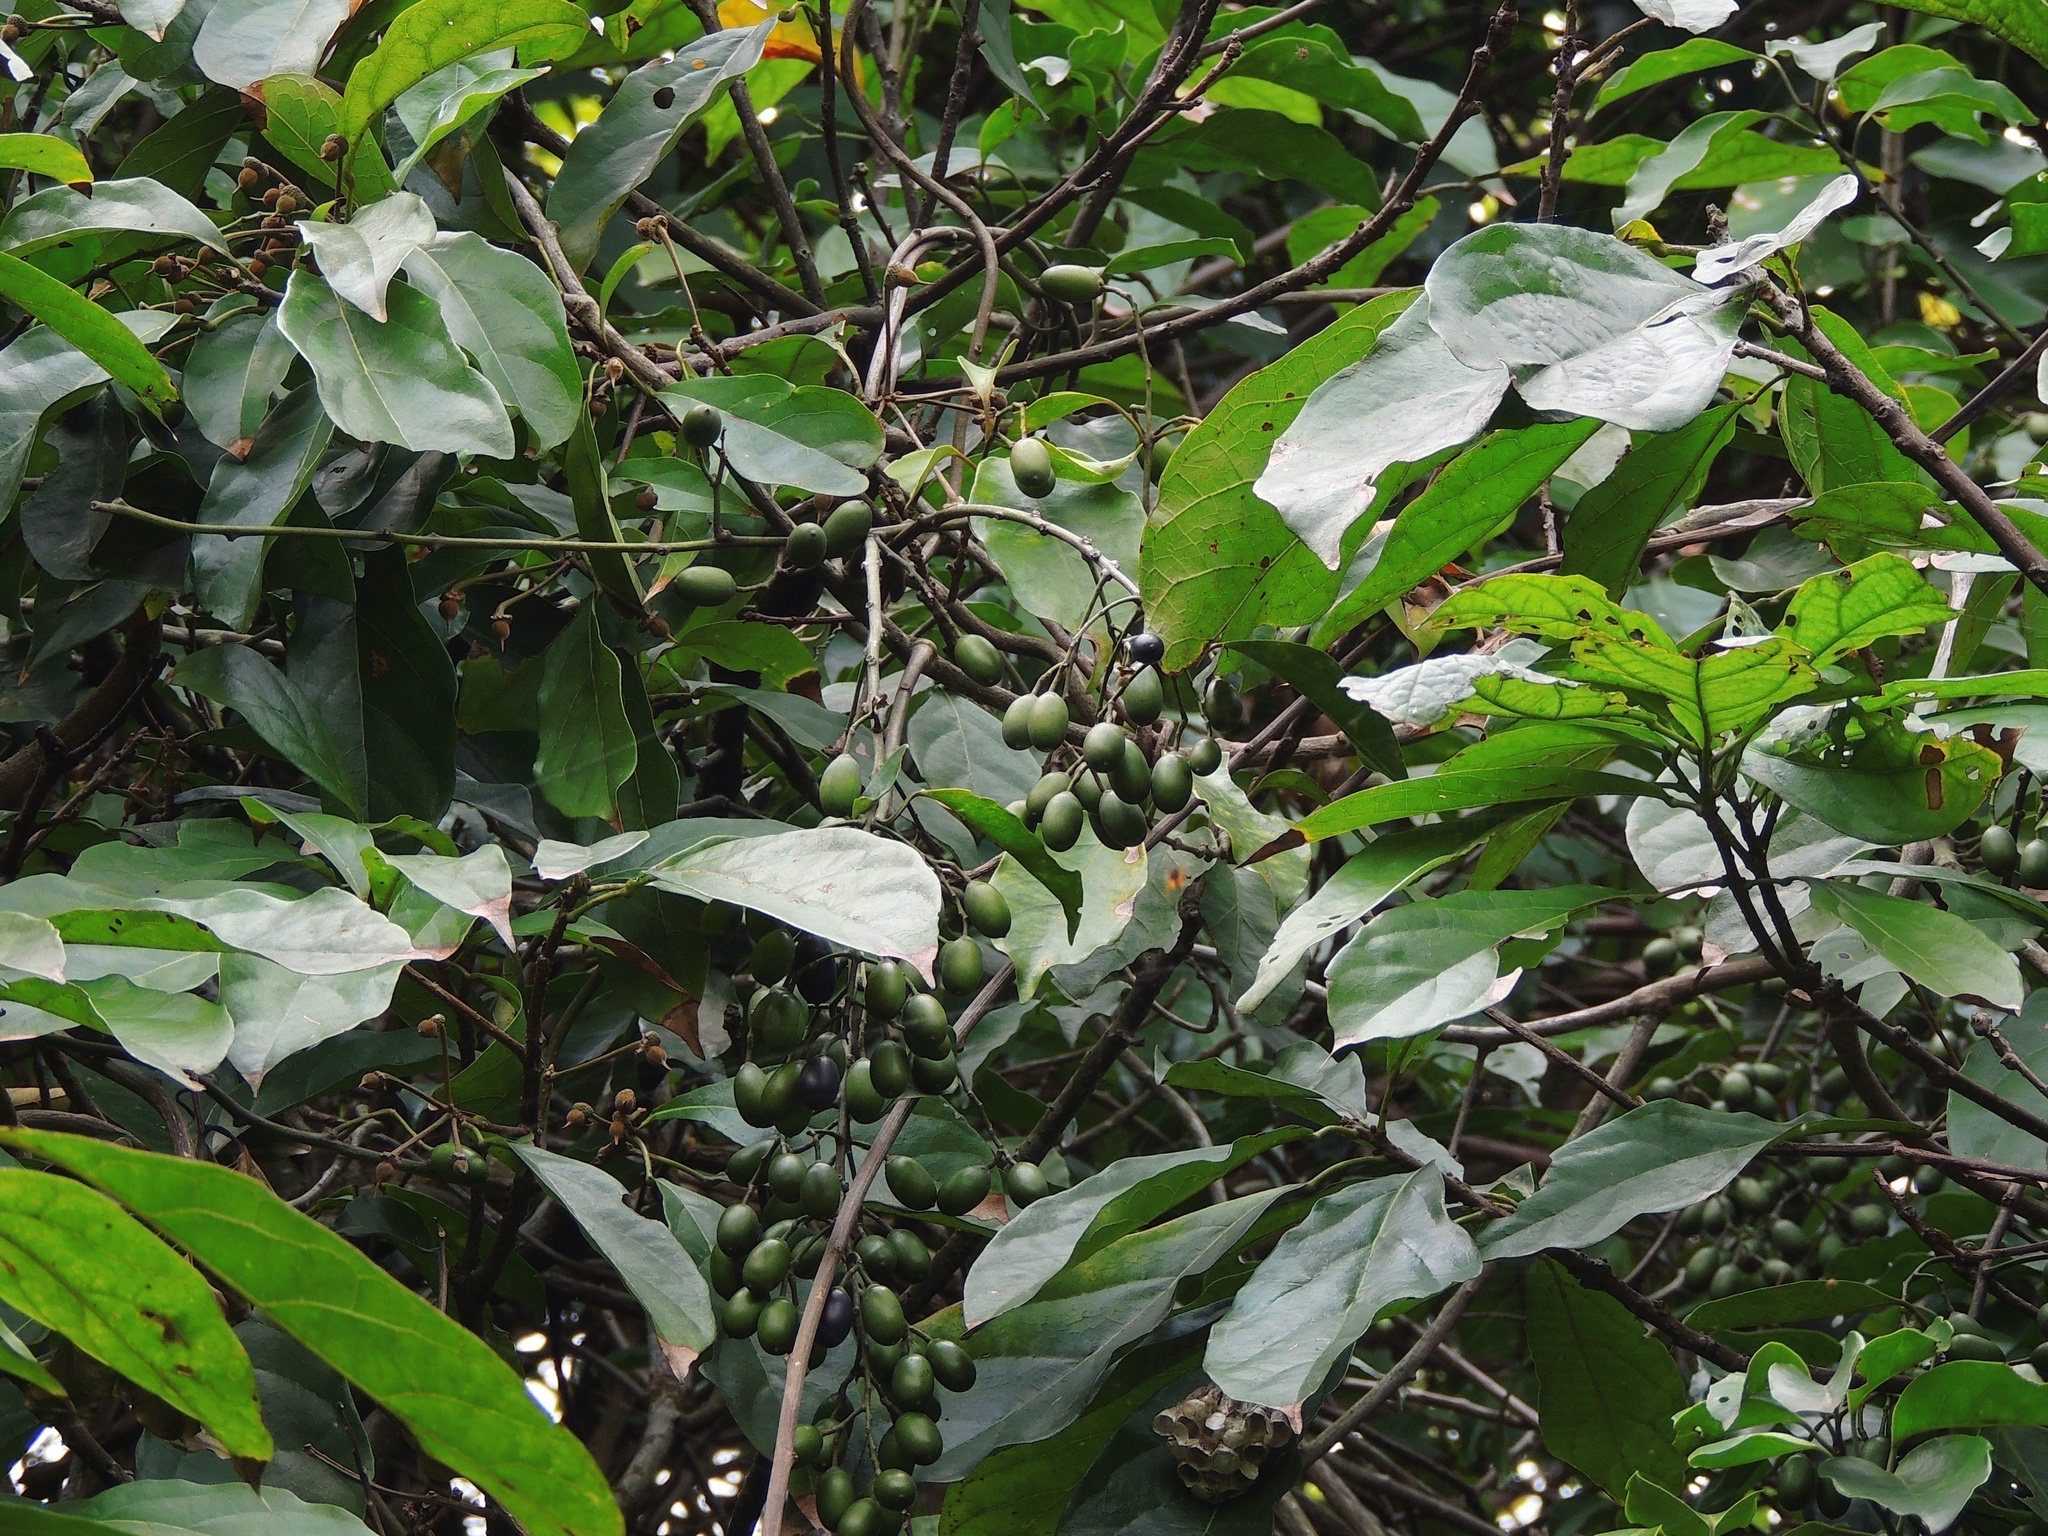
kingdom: Plantae
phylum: Tracheophyta
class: Magnoliopsida
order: Solanales
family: Convolvulaceae
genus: Erycibe
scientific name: Erycibe henryi
